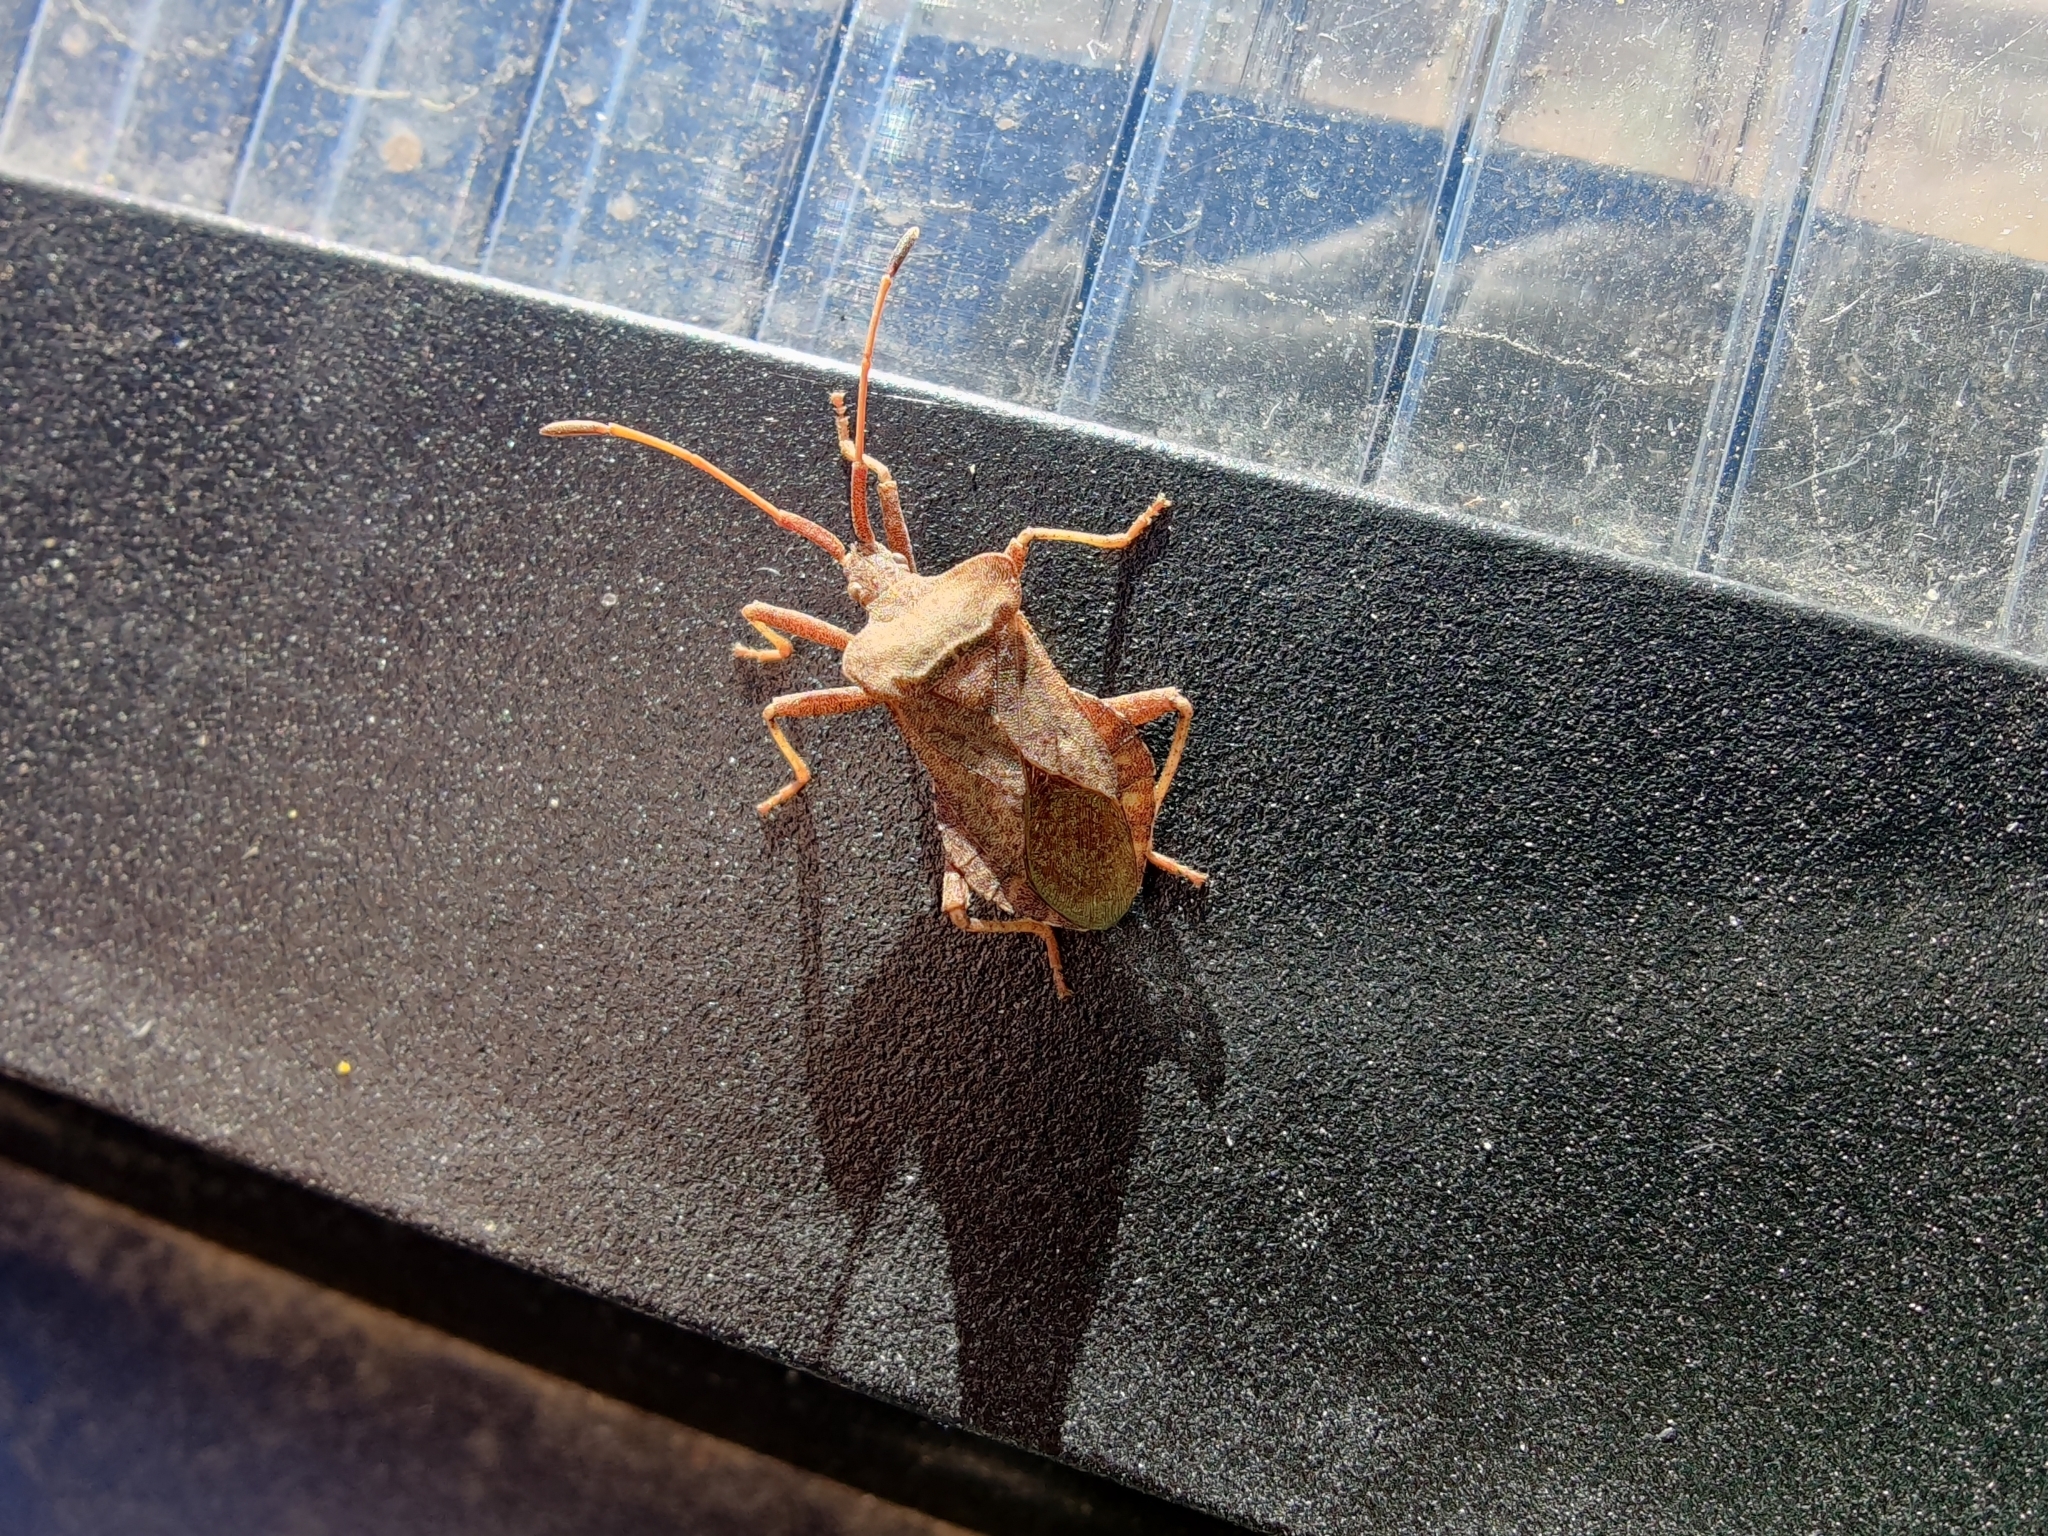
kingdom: Animalia
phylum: Arthropoda
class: Insecta
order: Hemiptera
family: Coreidae
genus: Coreus
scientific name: Coreus marginatus
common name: Dock bug
